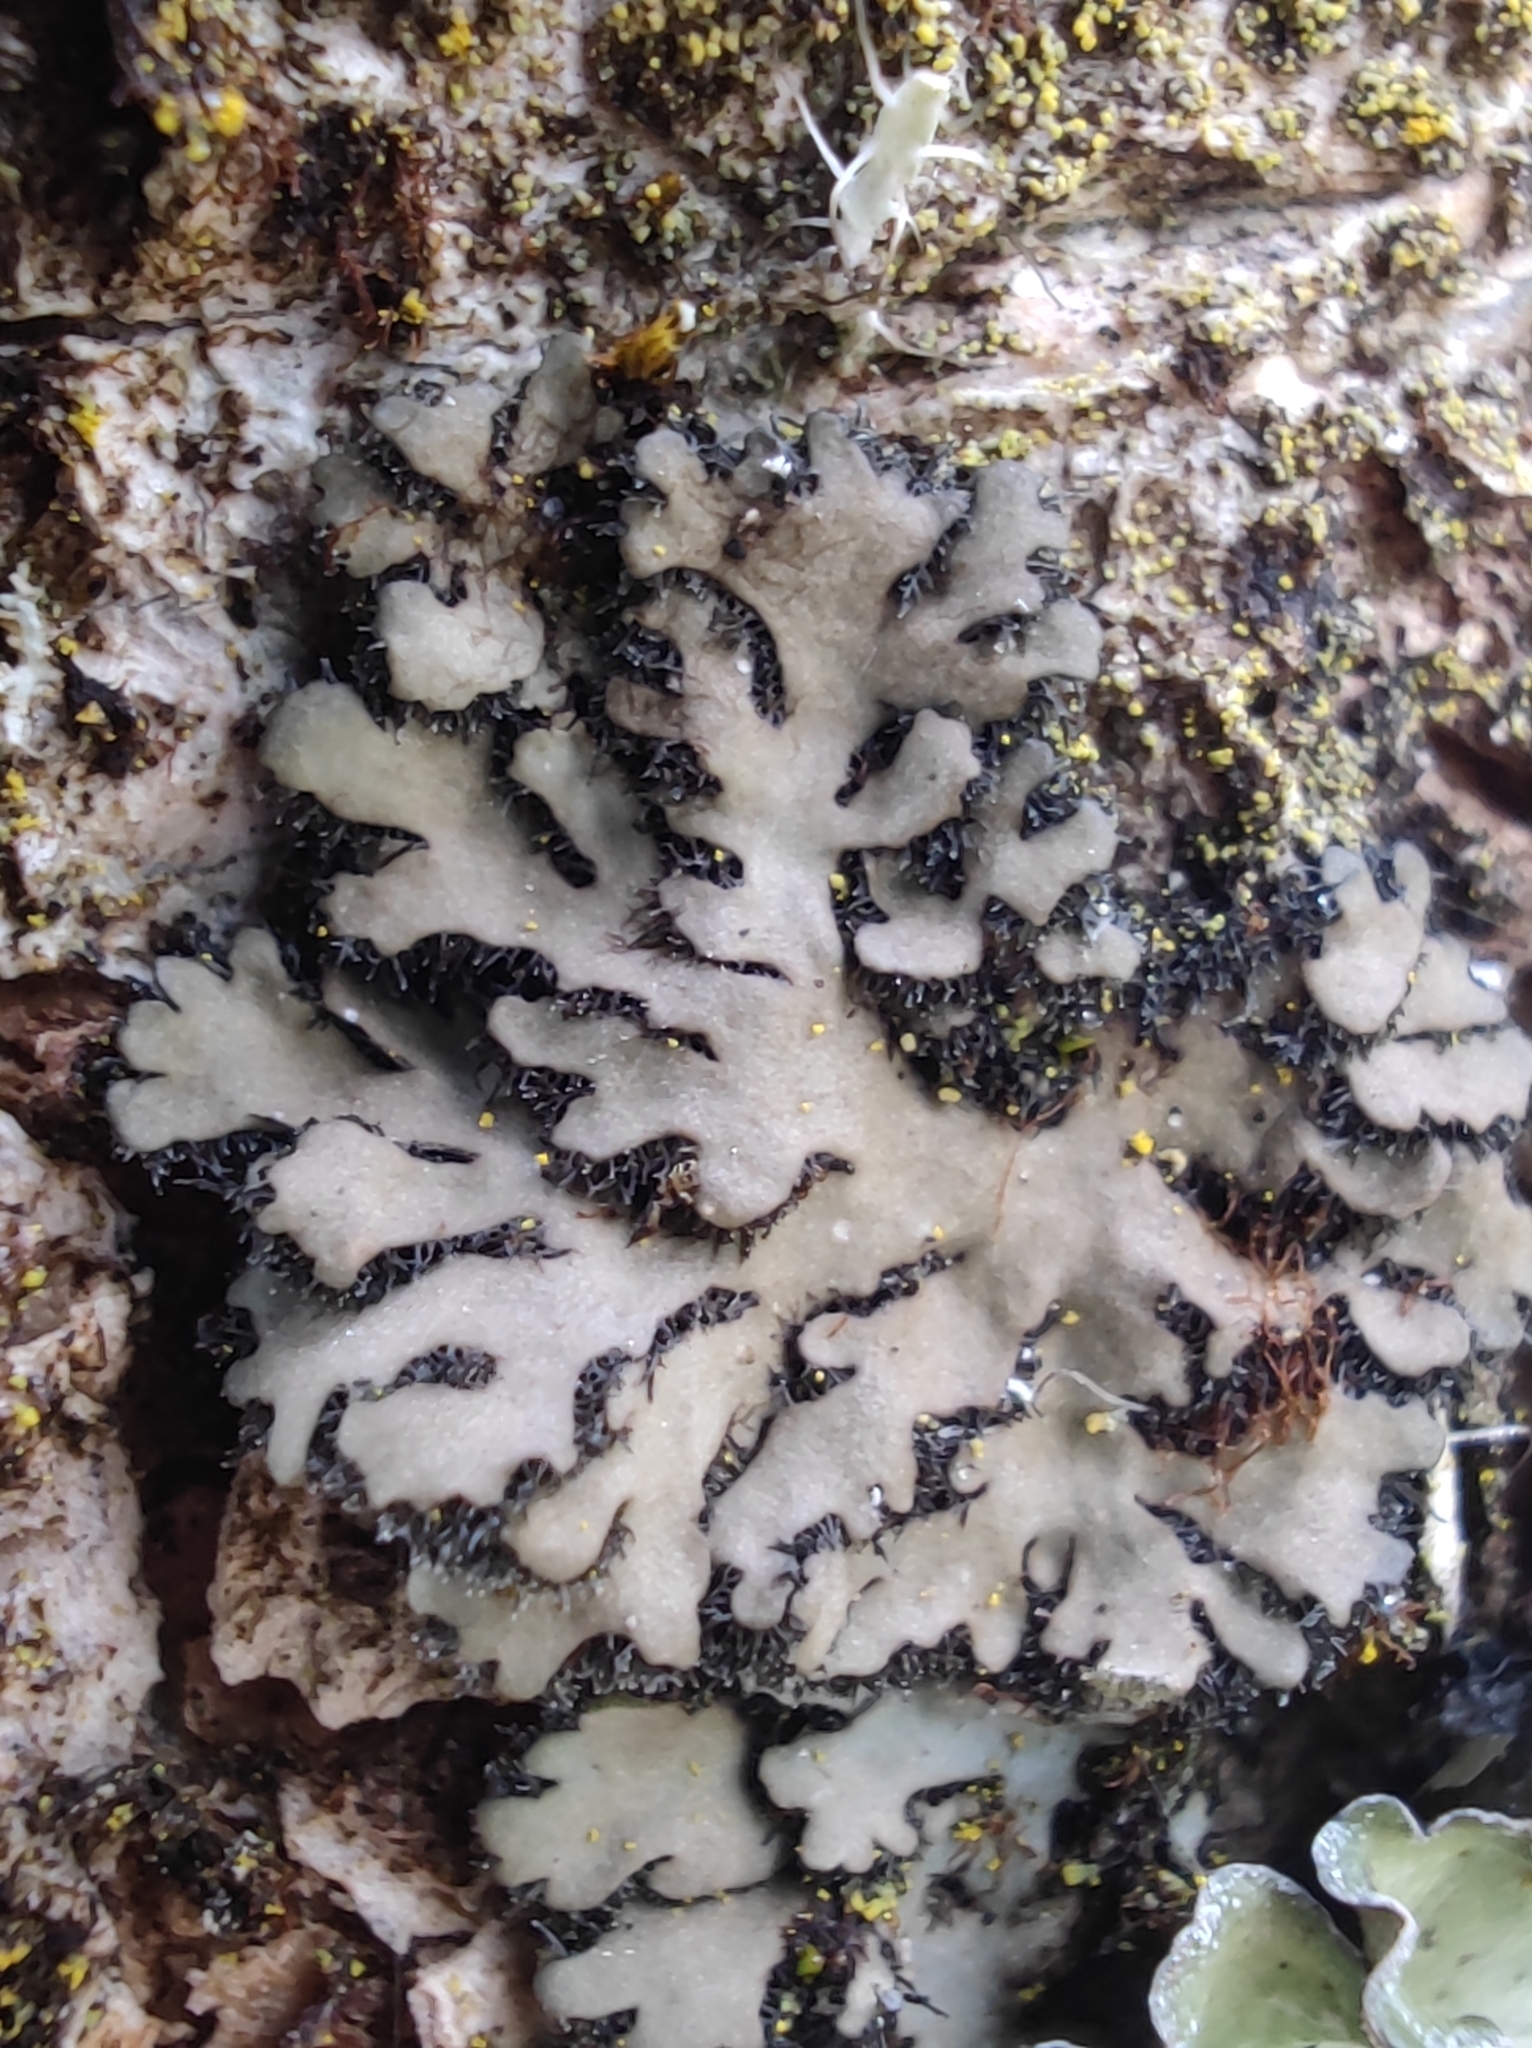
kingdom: Fungi
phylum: Ascomycota
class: Lecanoromycetes
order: Caliciales
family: Physciaceae
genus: Phaeophyscia
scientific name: Phaeophyscia orbicularis
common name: Mealy shadow lichen
